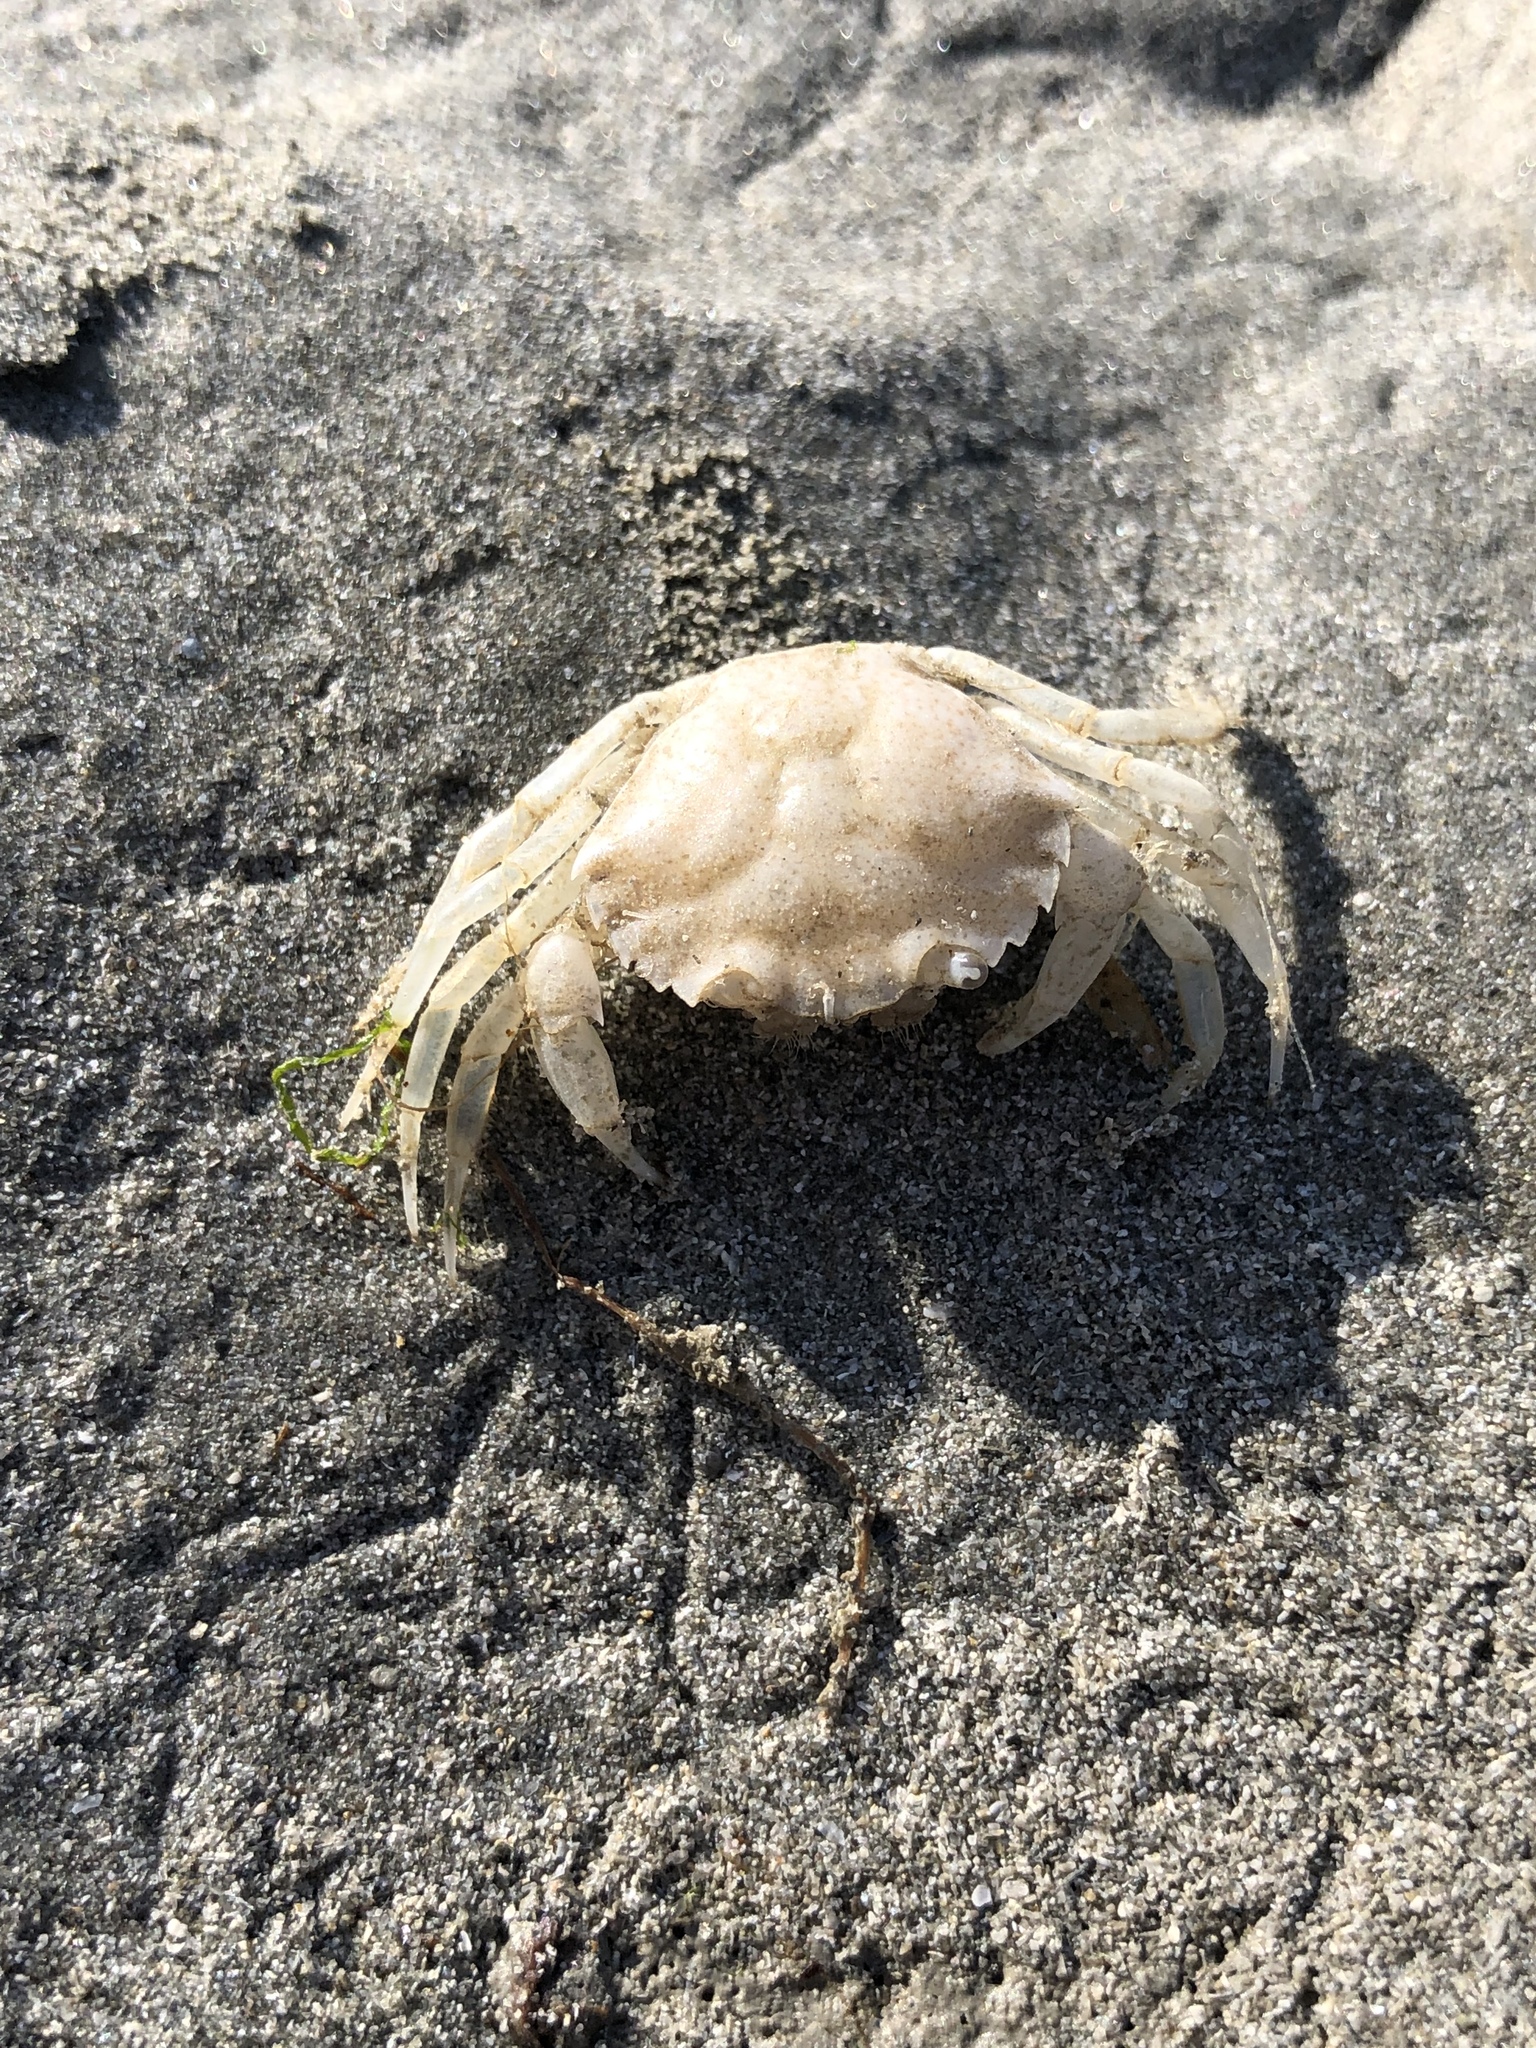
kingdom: Animalia
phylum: Arthropoda
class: Malacostraca
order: Decapoda
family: Carcinidae
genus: Carcinus
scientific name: Carcinus maenas
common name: European green crab
